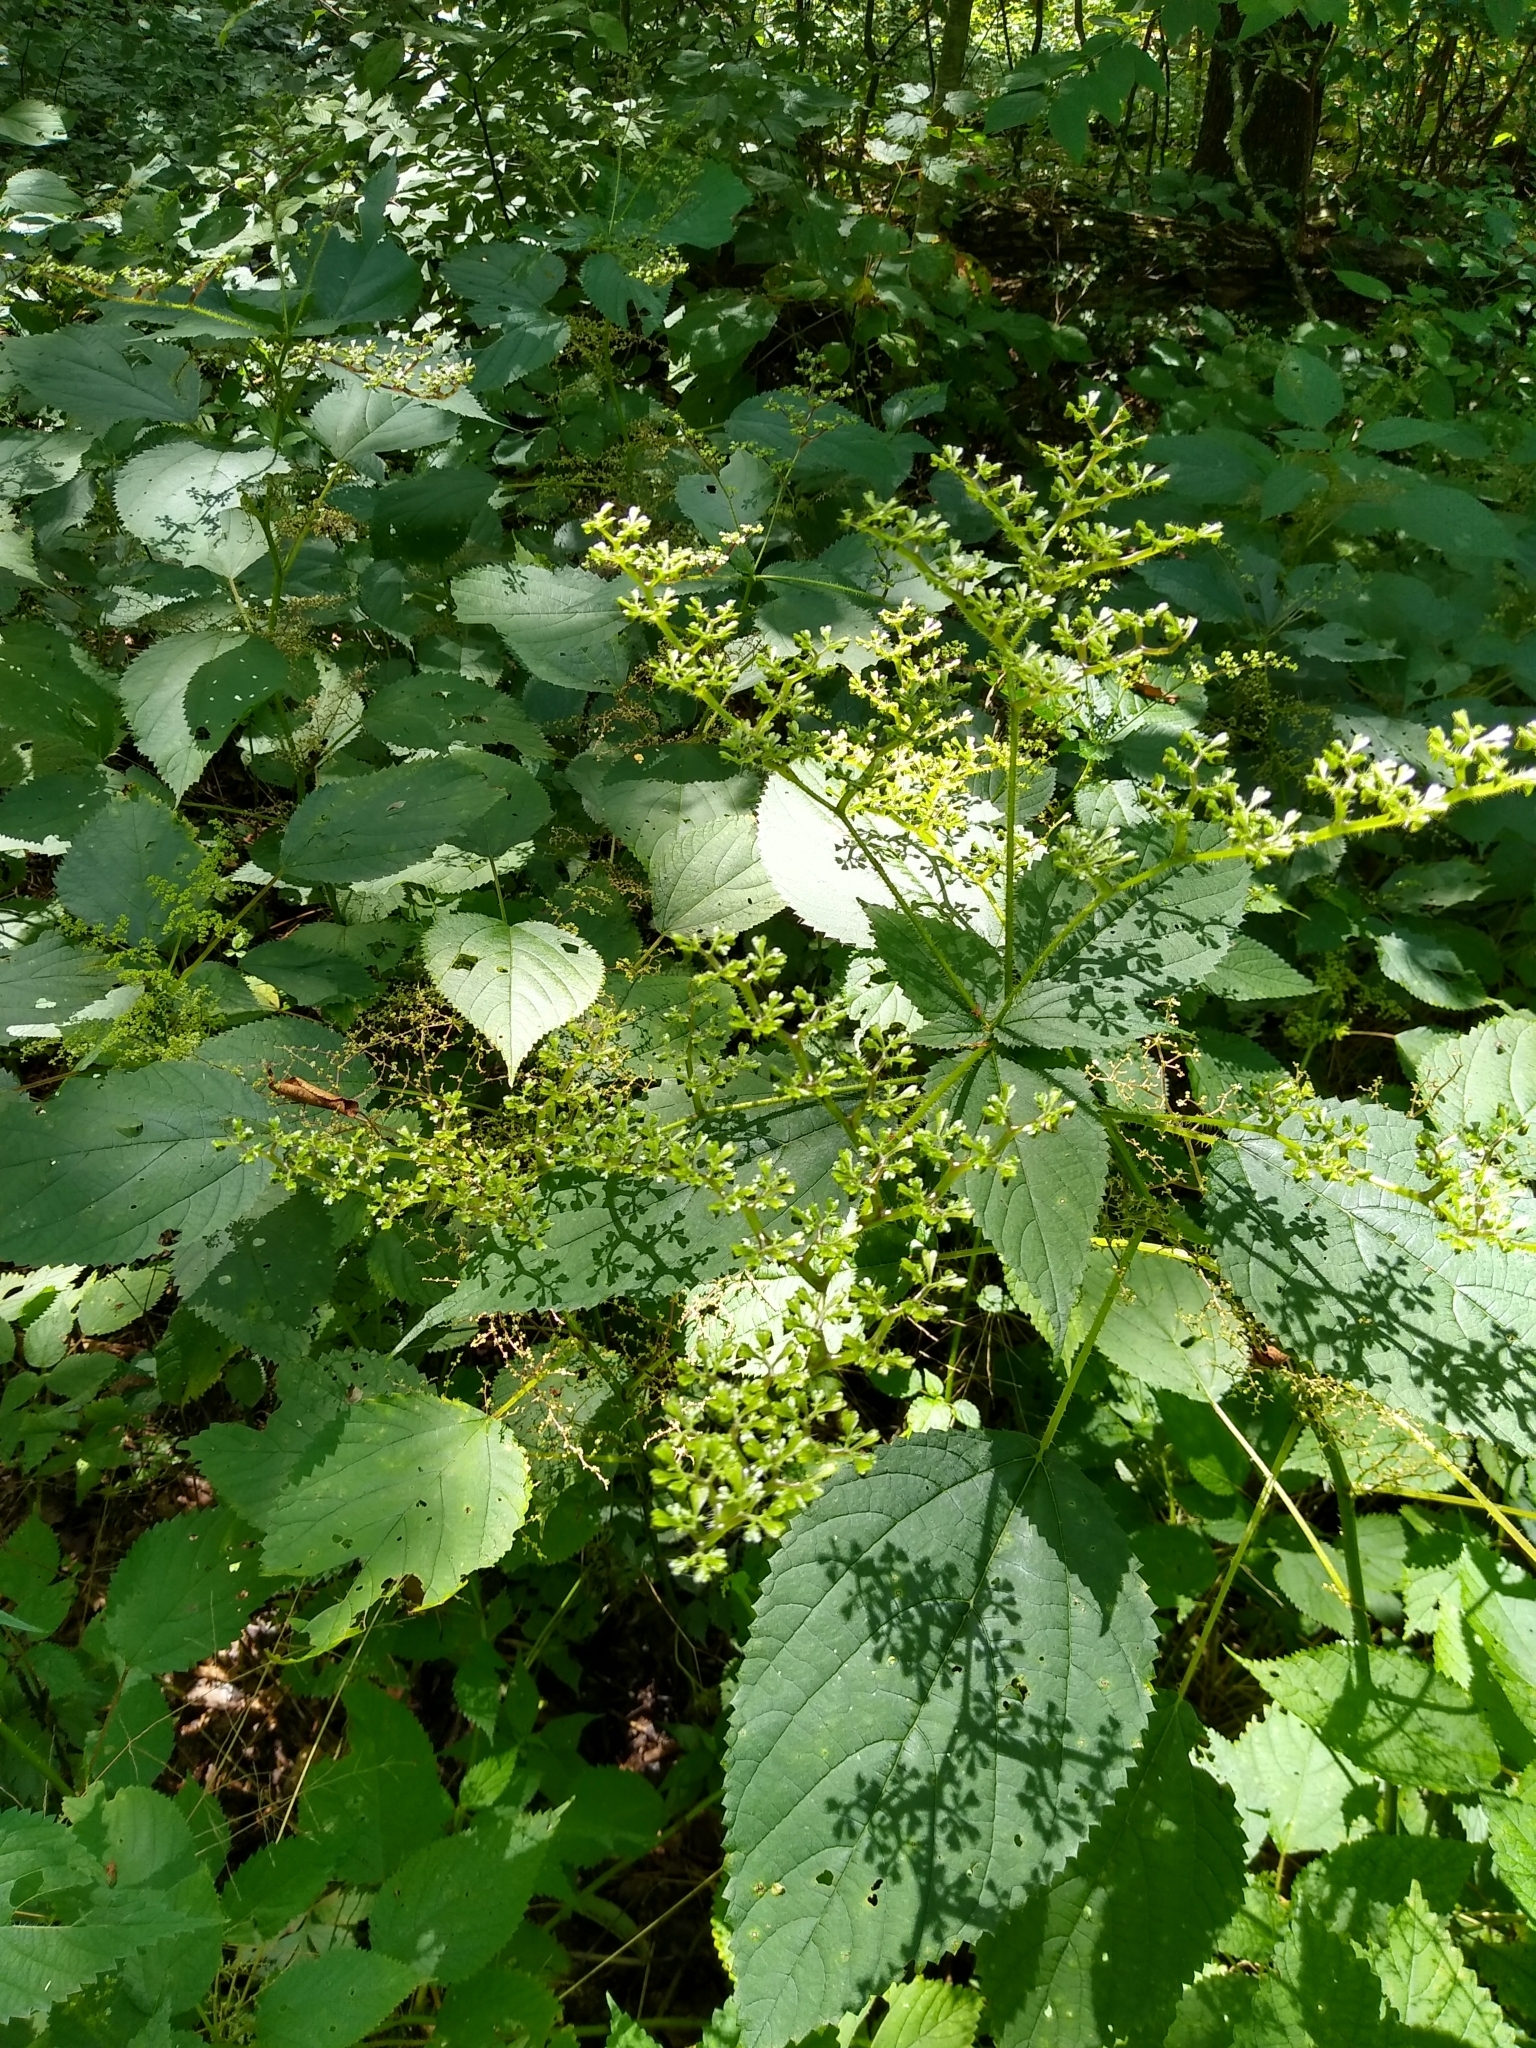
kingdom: Plantae
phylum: Tracheophyta
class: Magnoliopsida
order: Rosales
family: Urticaceae
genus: Laportea
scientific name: Laportea canadensis
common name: Canada nettle
